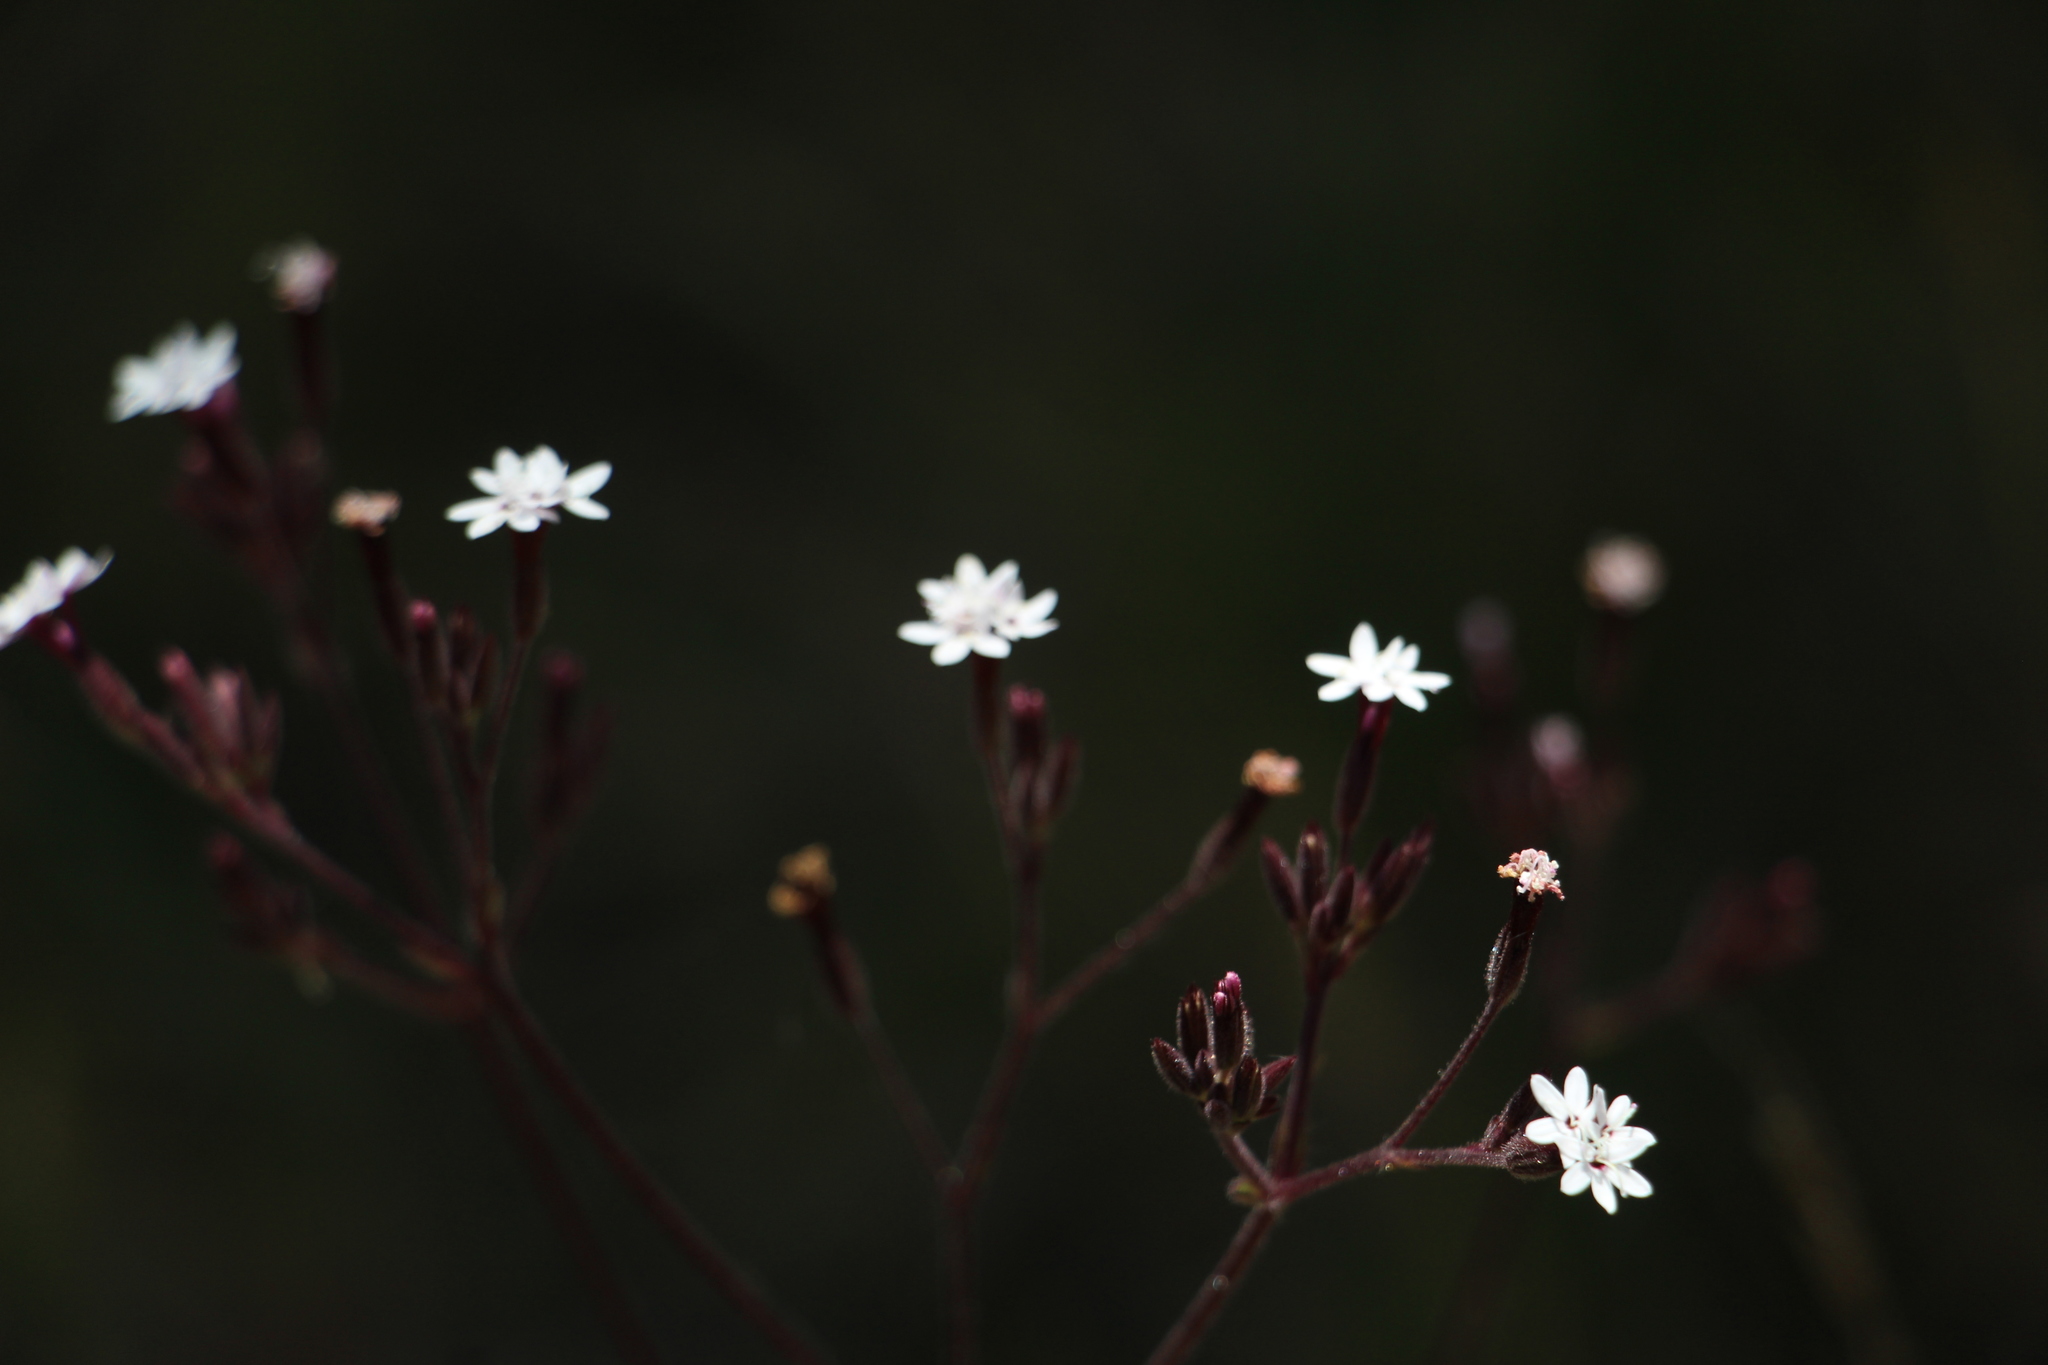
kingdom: Plantae
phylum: Tracheophyta
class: Magnoliopsida
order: Asterales
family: Asteraceae
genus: Stevia
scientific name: Stevia elatior
